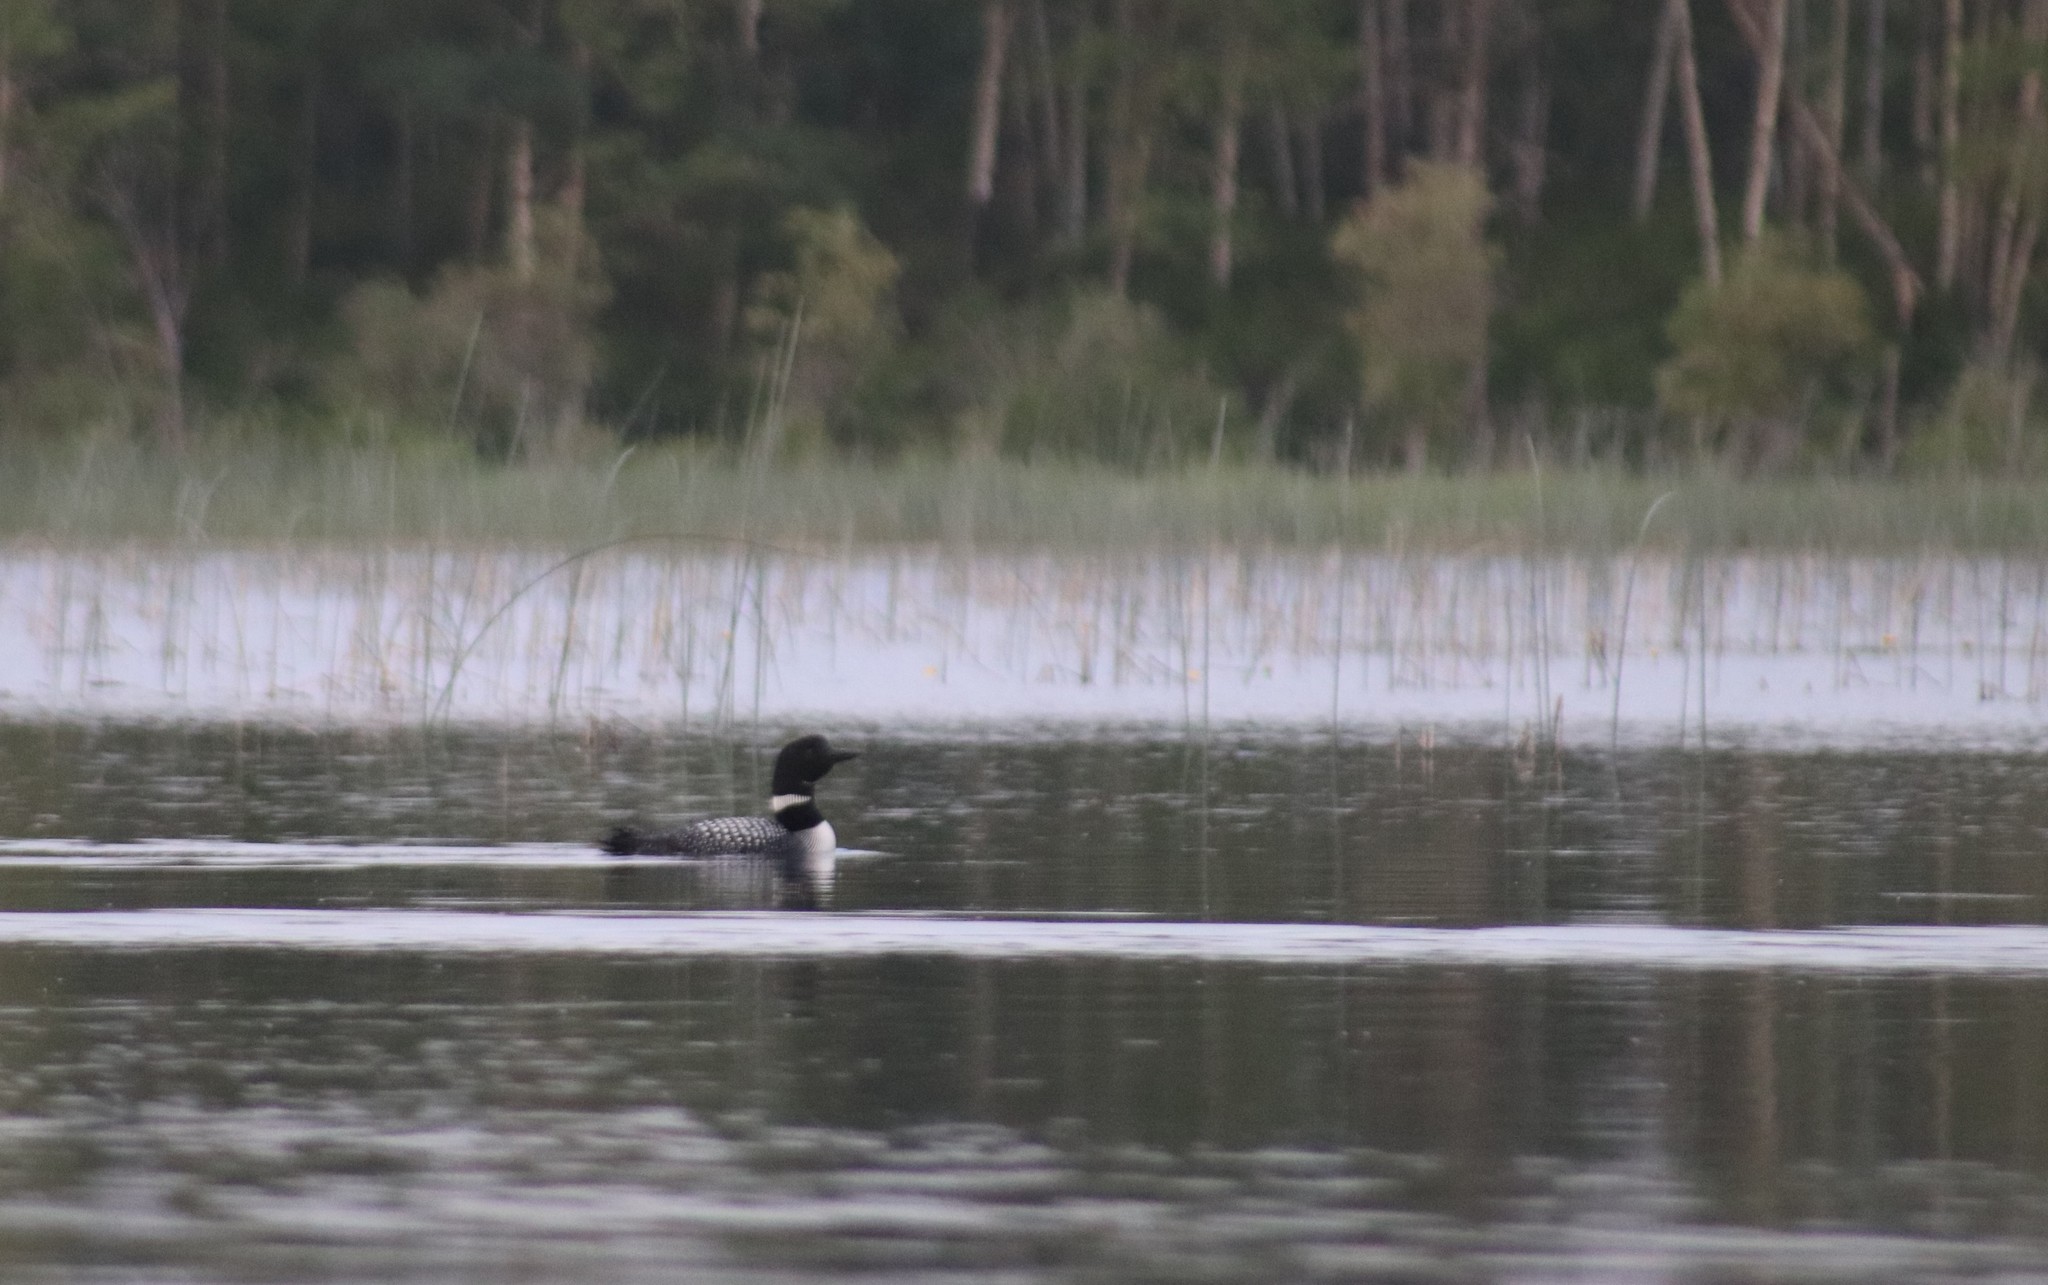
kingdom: Animalia
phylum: Chordata
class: Aves
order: Gaviiformes
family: Gaviidae
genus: Gavia
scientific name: Gavia immer
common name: Common loon
